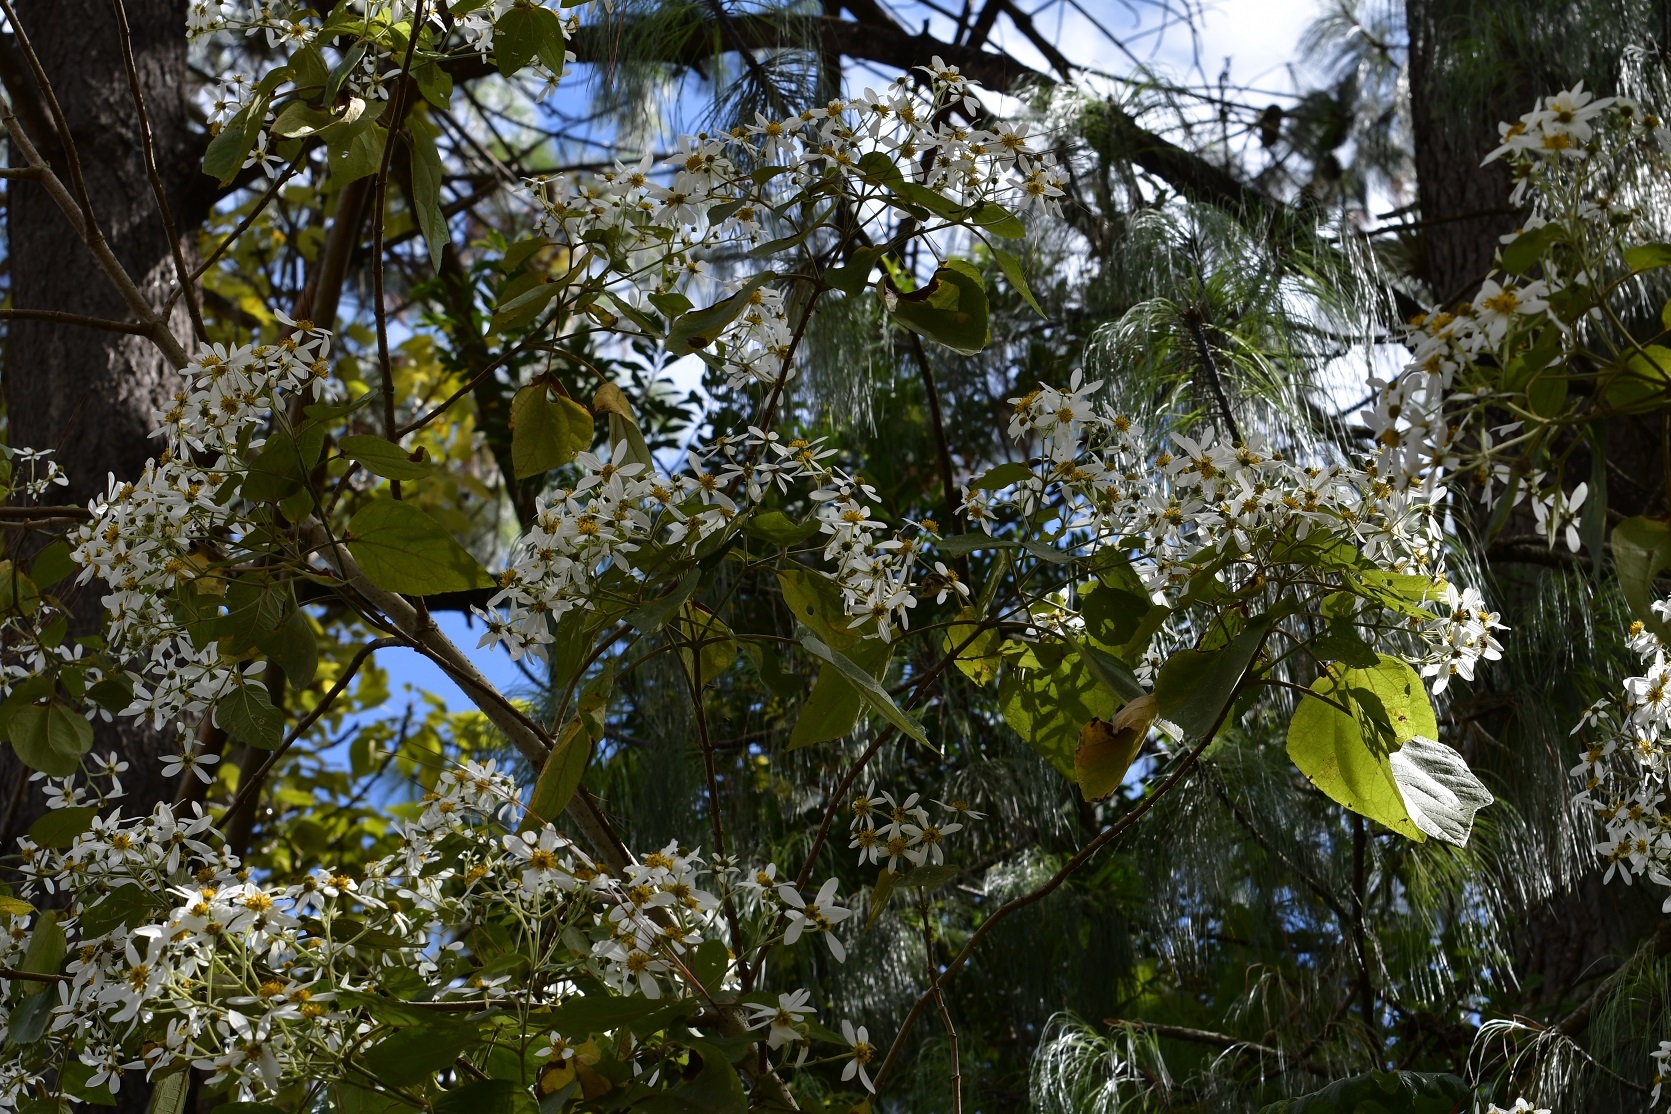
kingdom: Plantae
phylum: Tracheophyta
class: Magnoliopsida
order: Asterales
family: Asteraceae
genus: Montanoa
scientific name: Montanoa leucantha
